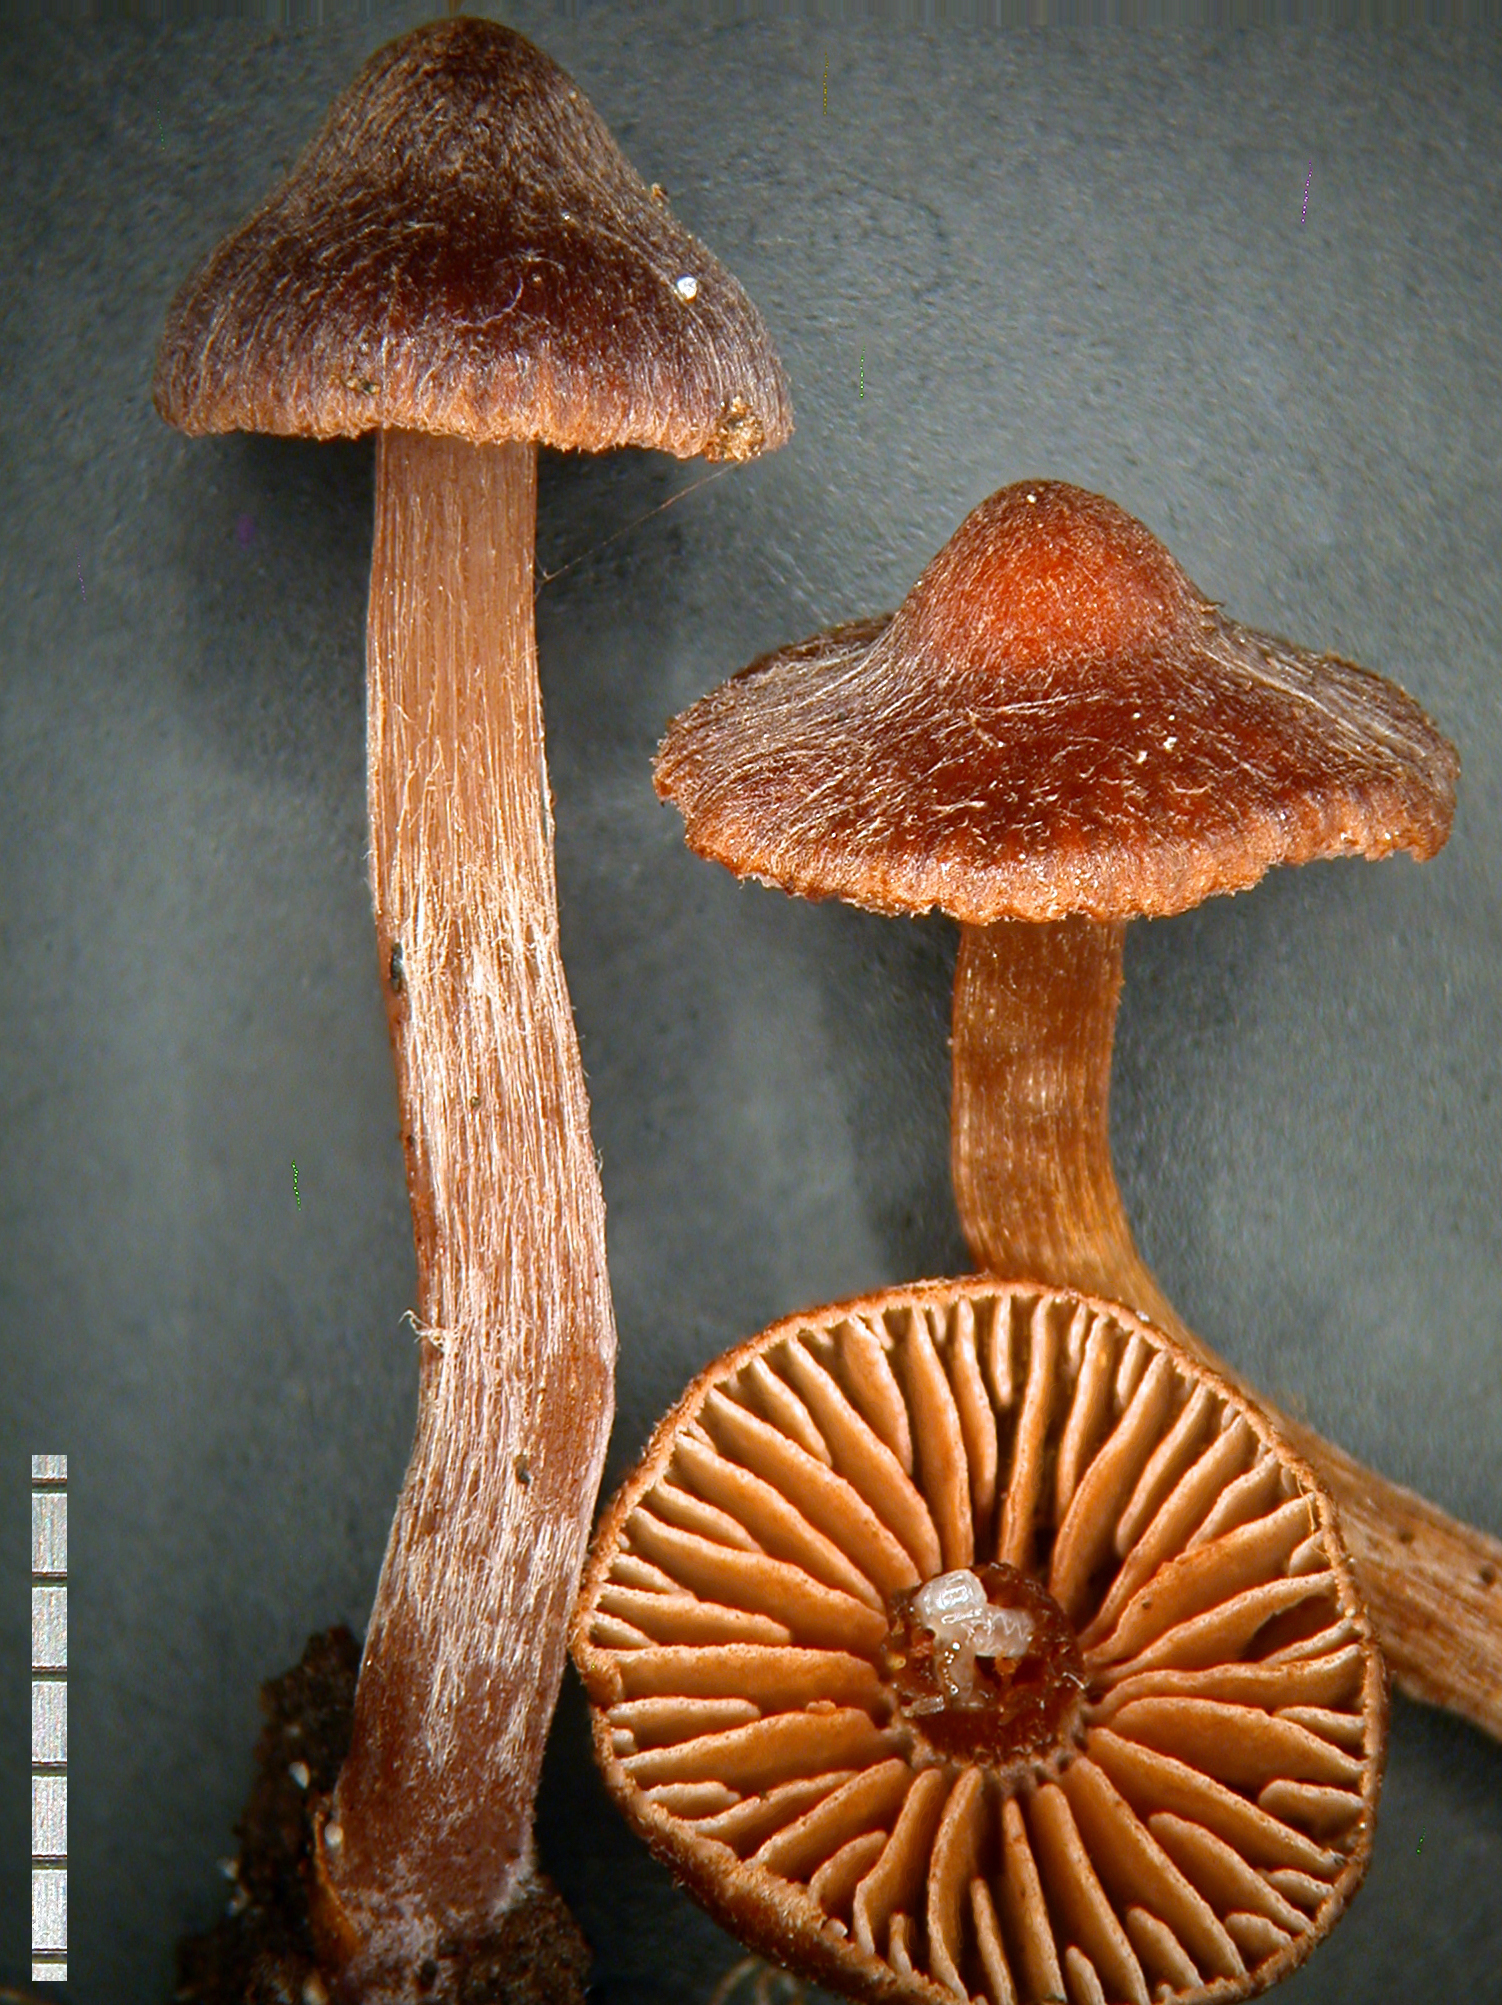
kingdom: Fungi
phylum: Basidiomycota
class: Agaricomycetes
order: Agaricales
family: Cortinariaceae
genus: Cortinarius
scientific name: Cortinarius fulvopaludosus
